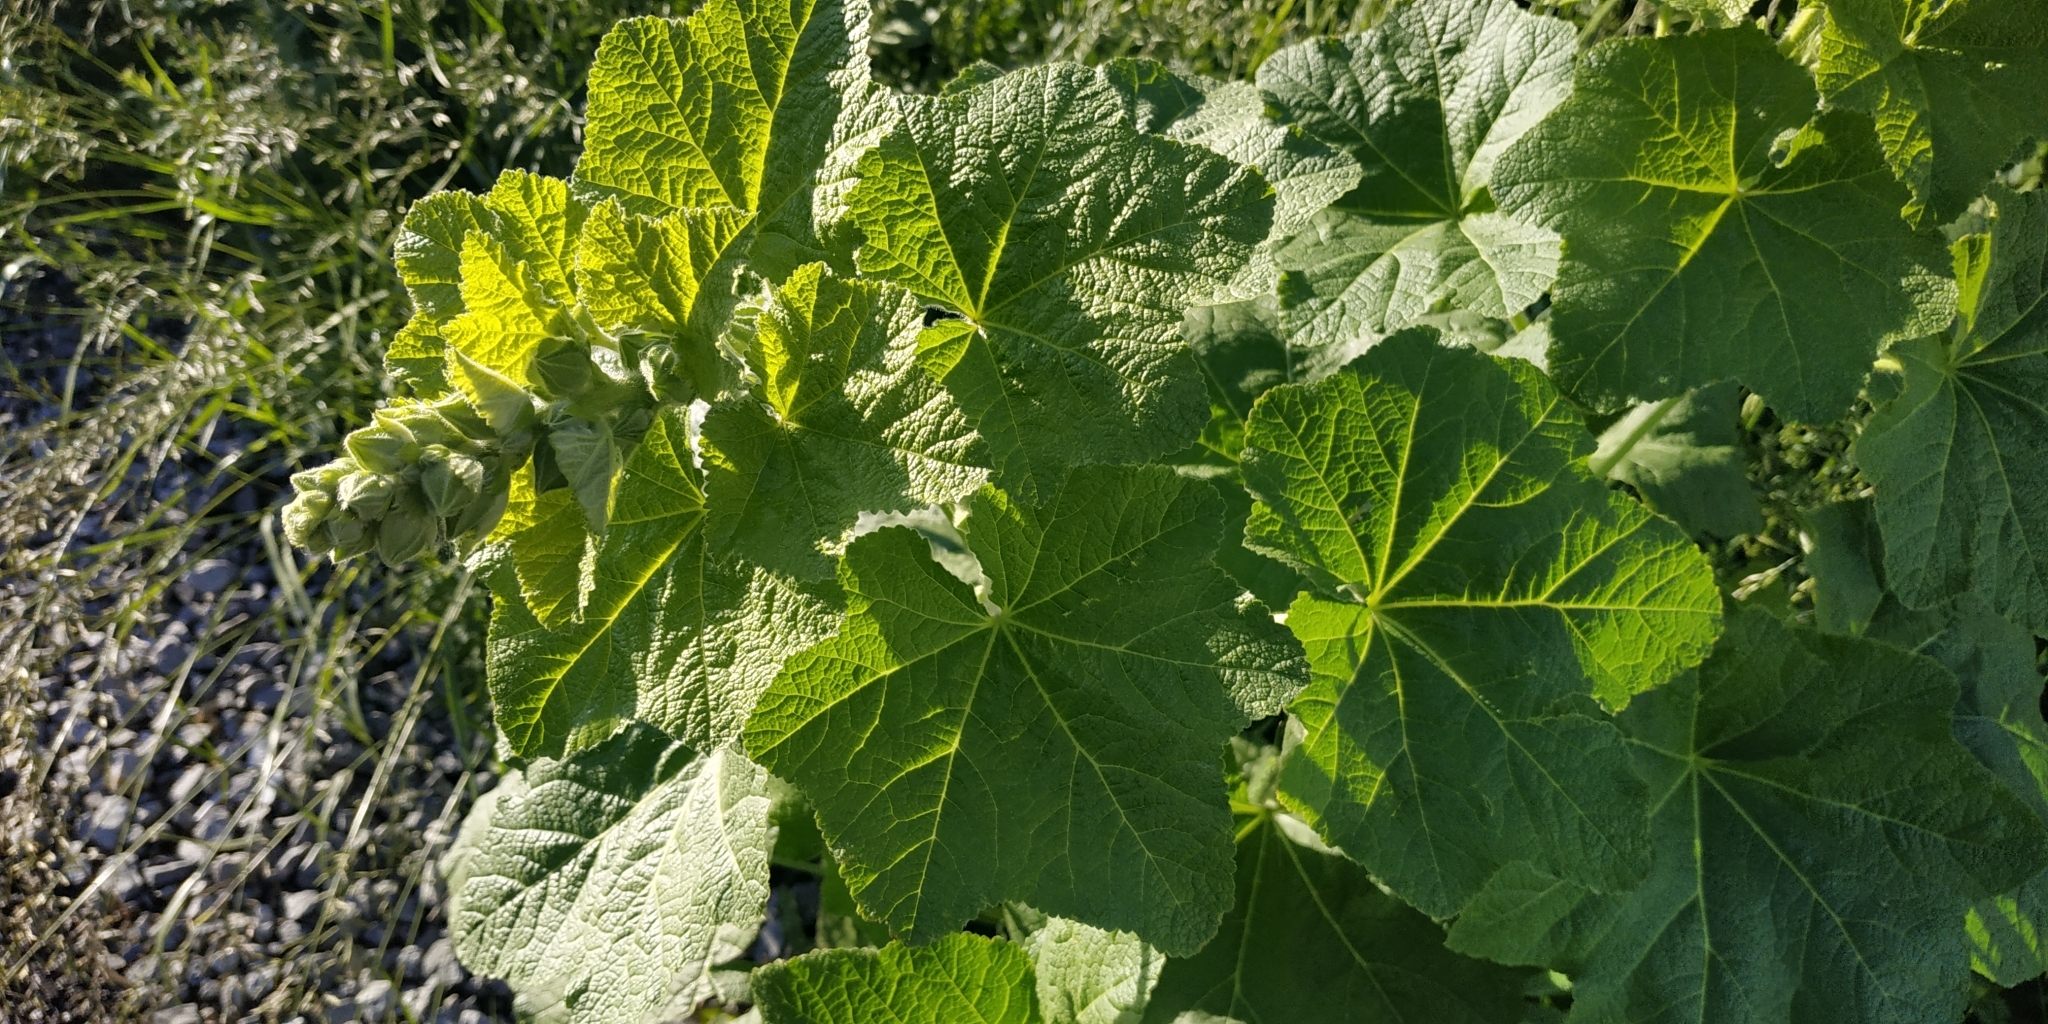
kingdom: Plantae
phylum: Tracheophyta
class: Magnoliopsida
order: Malvales
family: Malvaceae
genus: Alcea
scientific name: Alcea rosea
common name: Hollyhock
